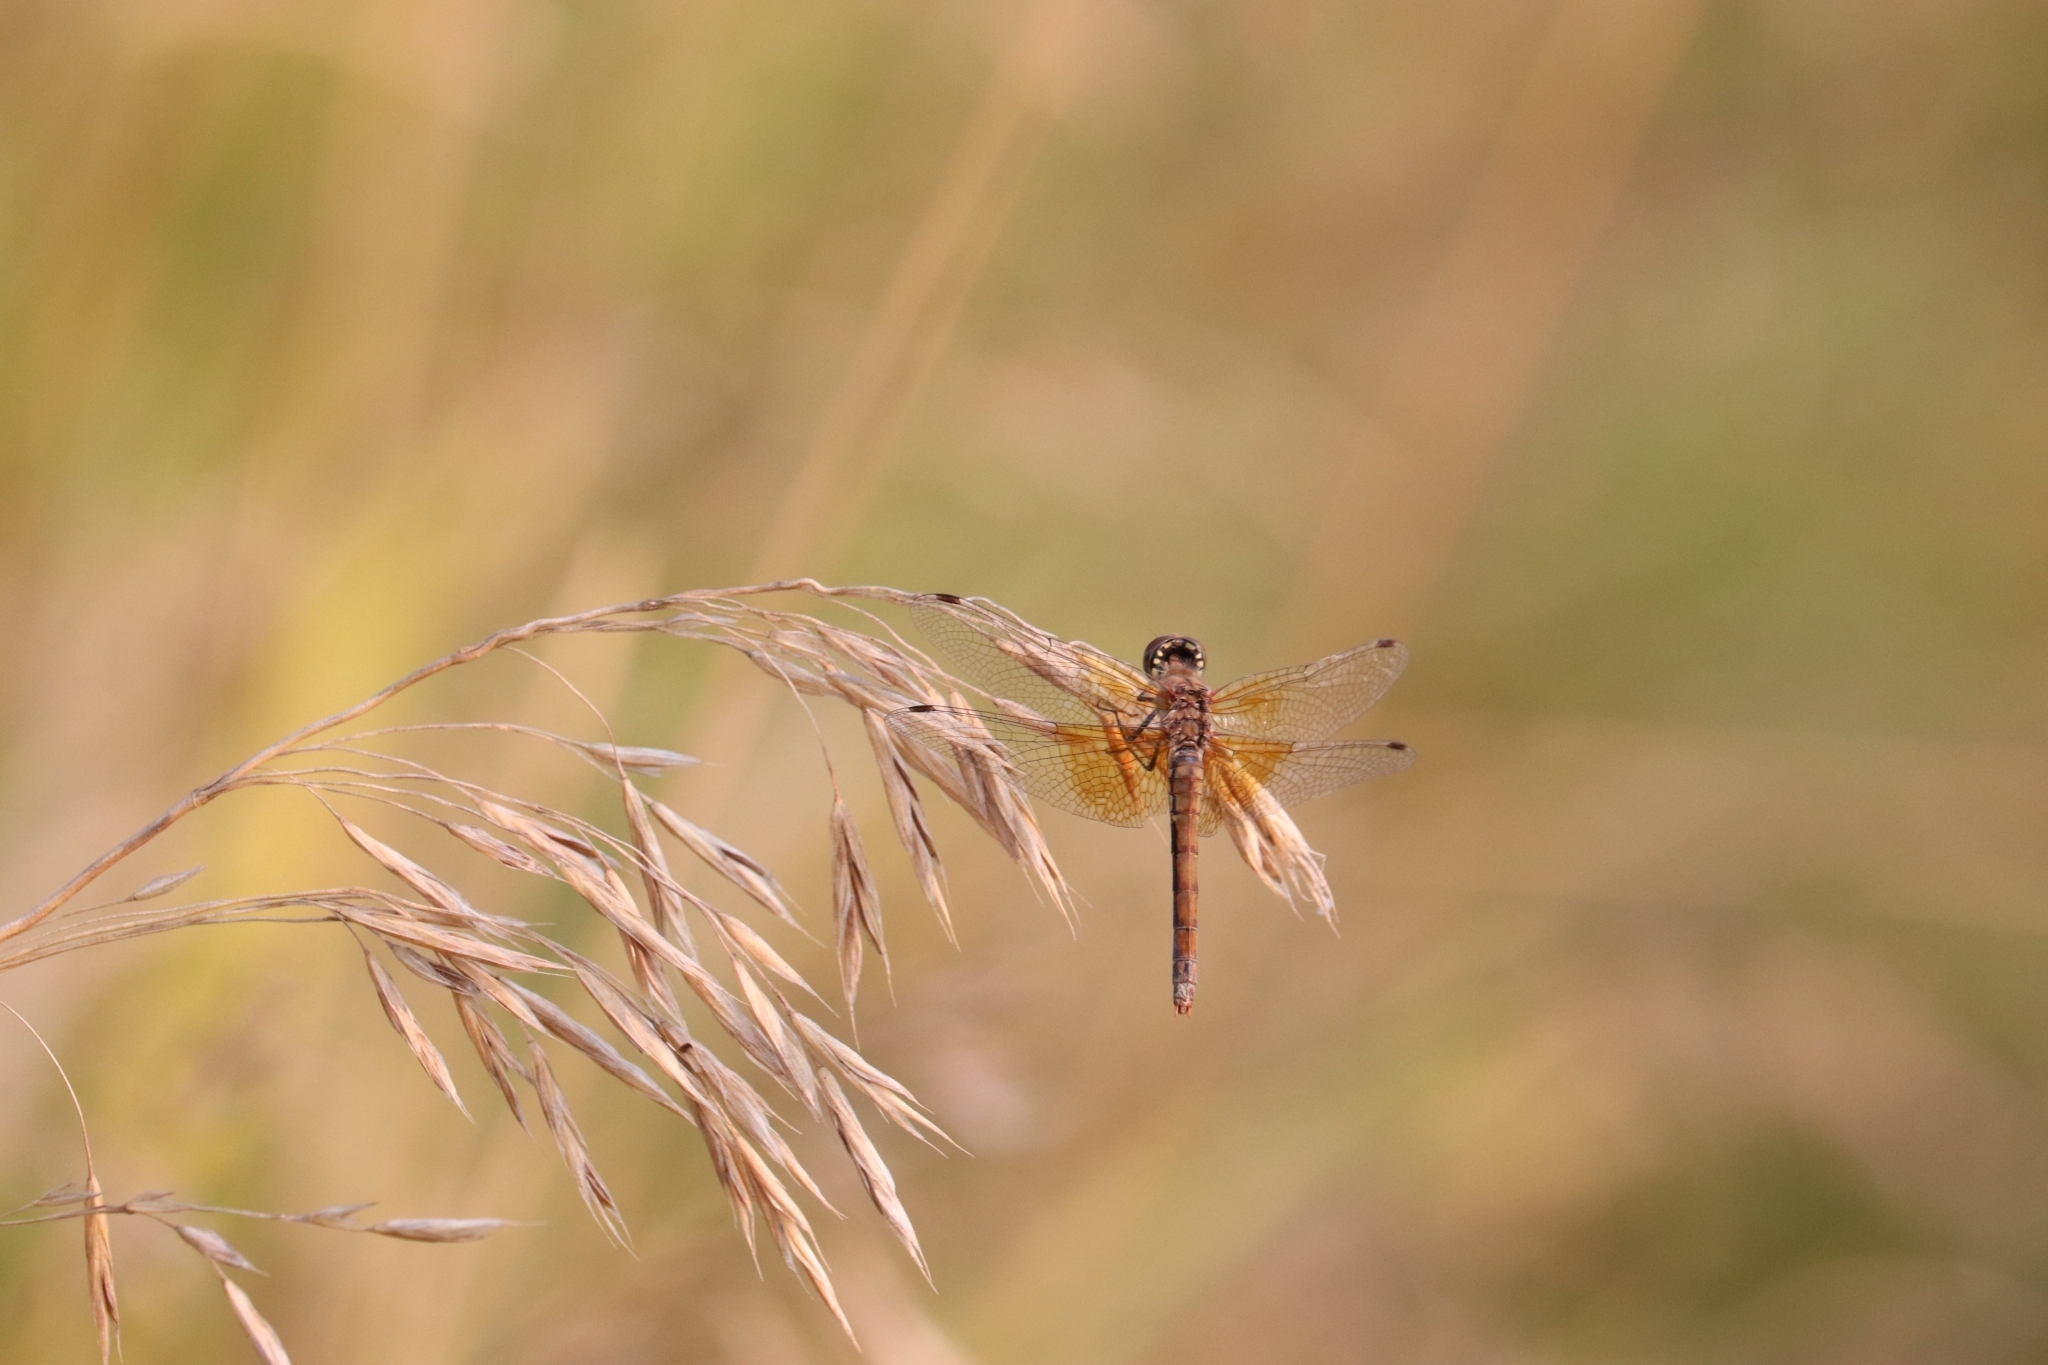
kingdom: Animalia
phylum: Arthropoda
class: Insecta
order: Odonata
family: Libellulidae
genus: Sympetrum
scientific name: Sympetrum semicinctum
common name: Band-winged meadowhawk
